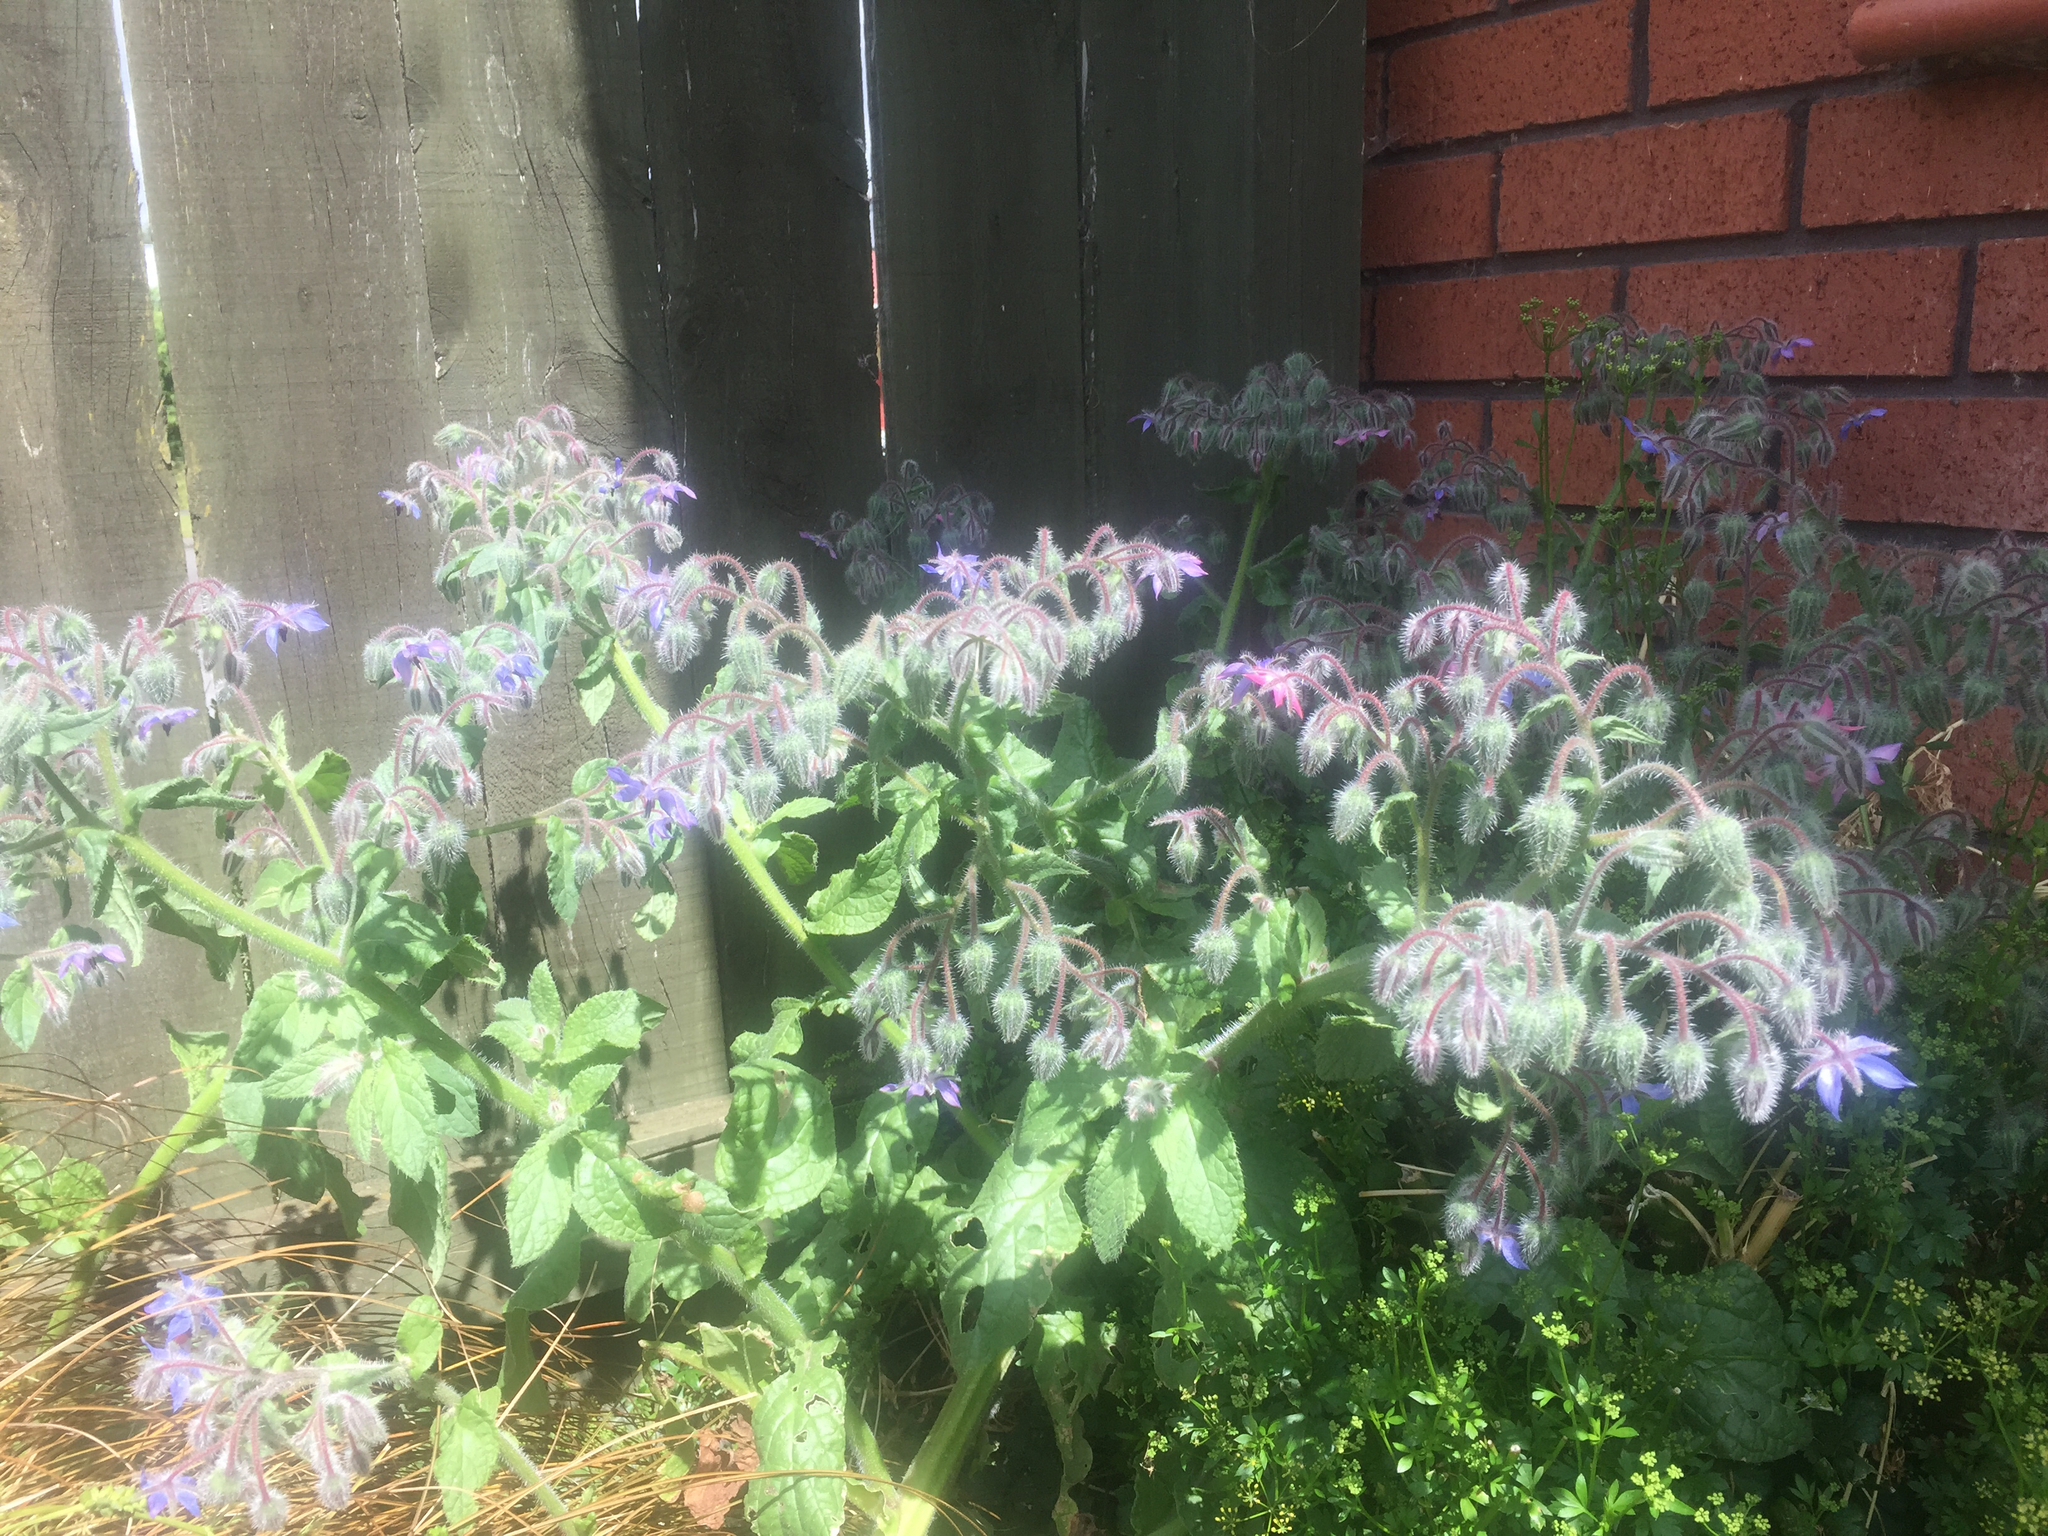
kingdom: Plantae
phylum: Tracheophyta
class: Magnoliopsida
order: Boraginales
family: Boraginaceae
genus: Borago
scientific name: Borago officinalis
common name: Borage
